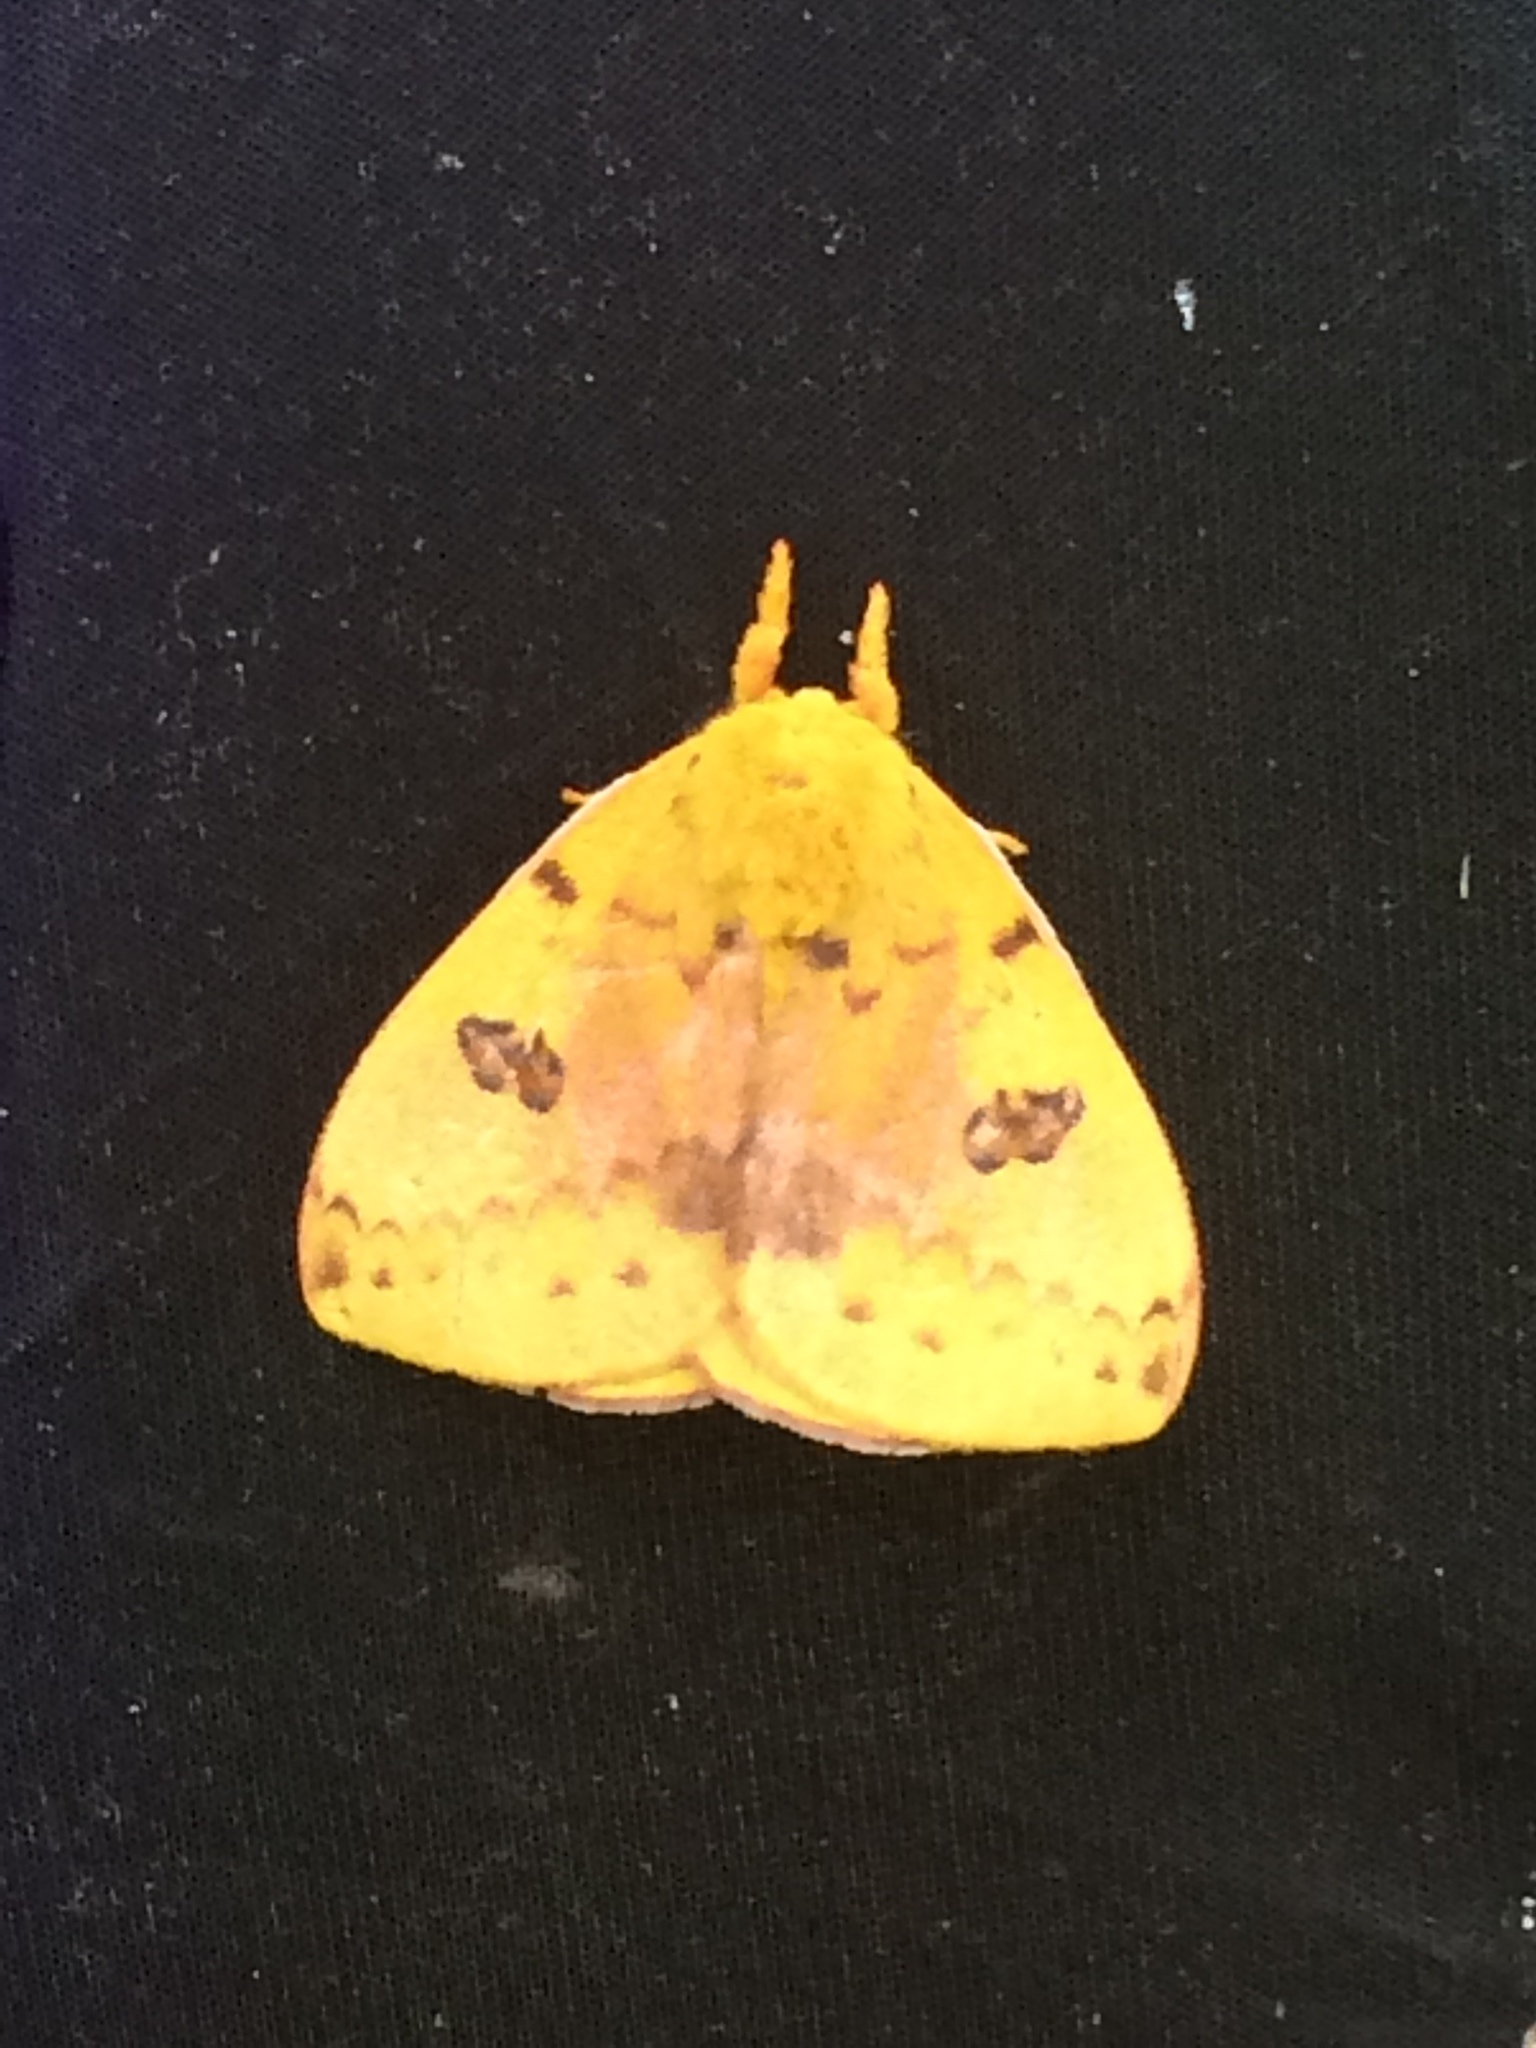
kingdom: Animalia
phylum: Arthropoda
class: Insecta
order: Lepidoptera
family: Saturniidae
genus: Automeris
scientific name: Automeris io
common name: Io moth
